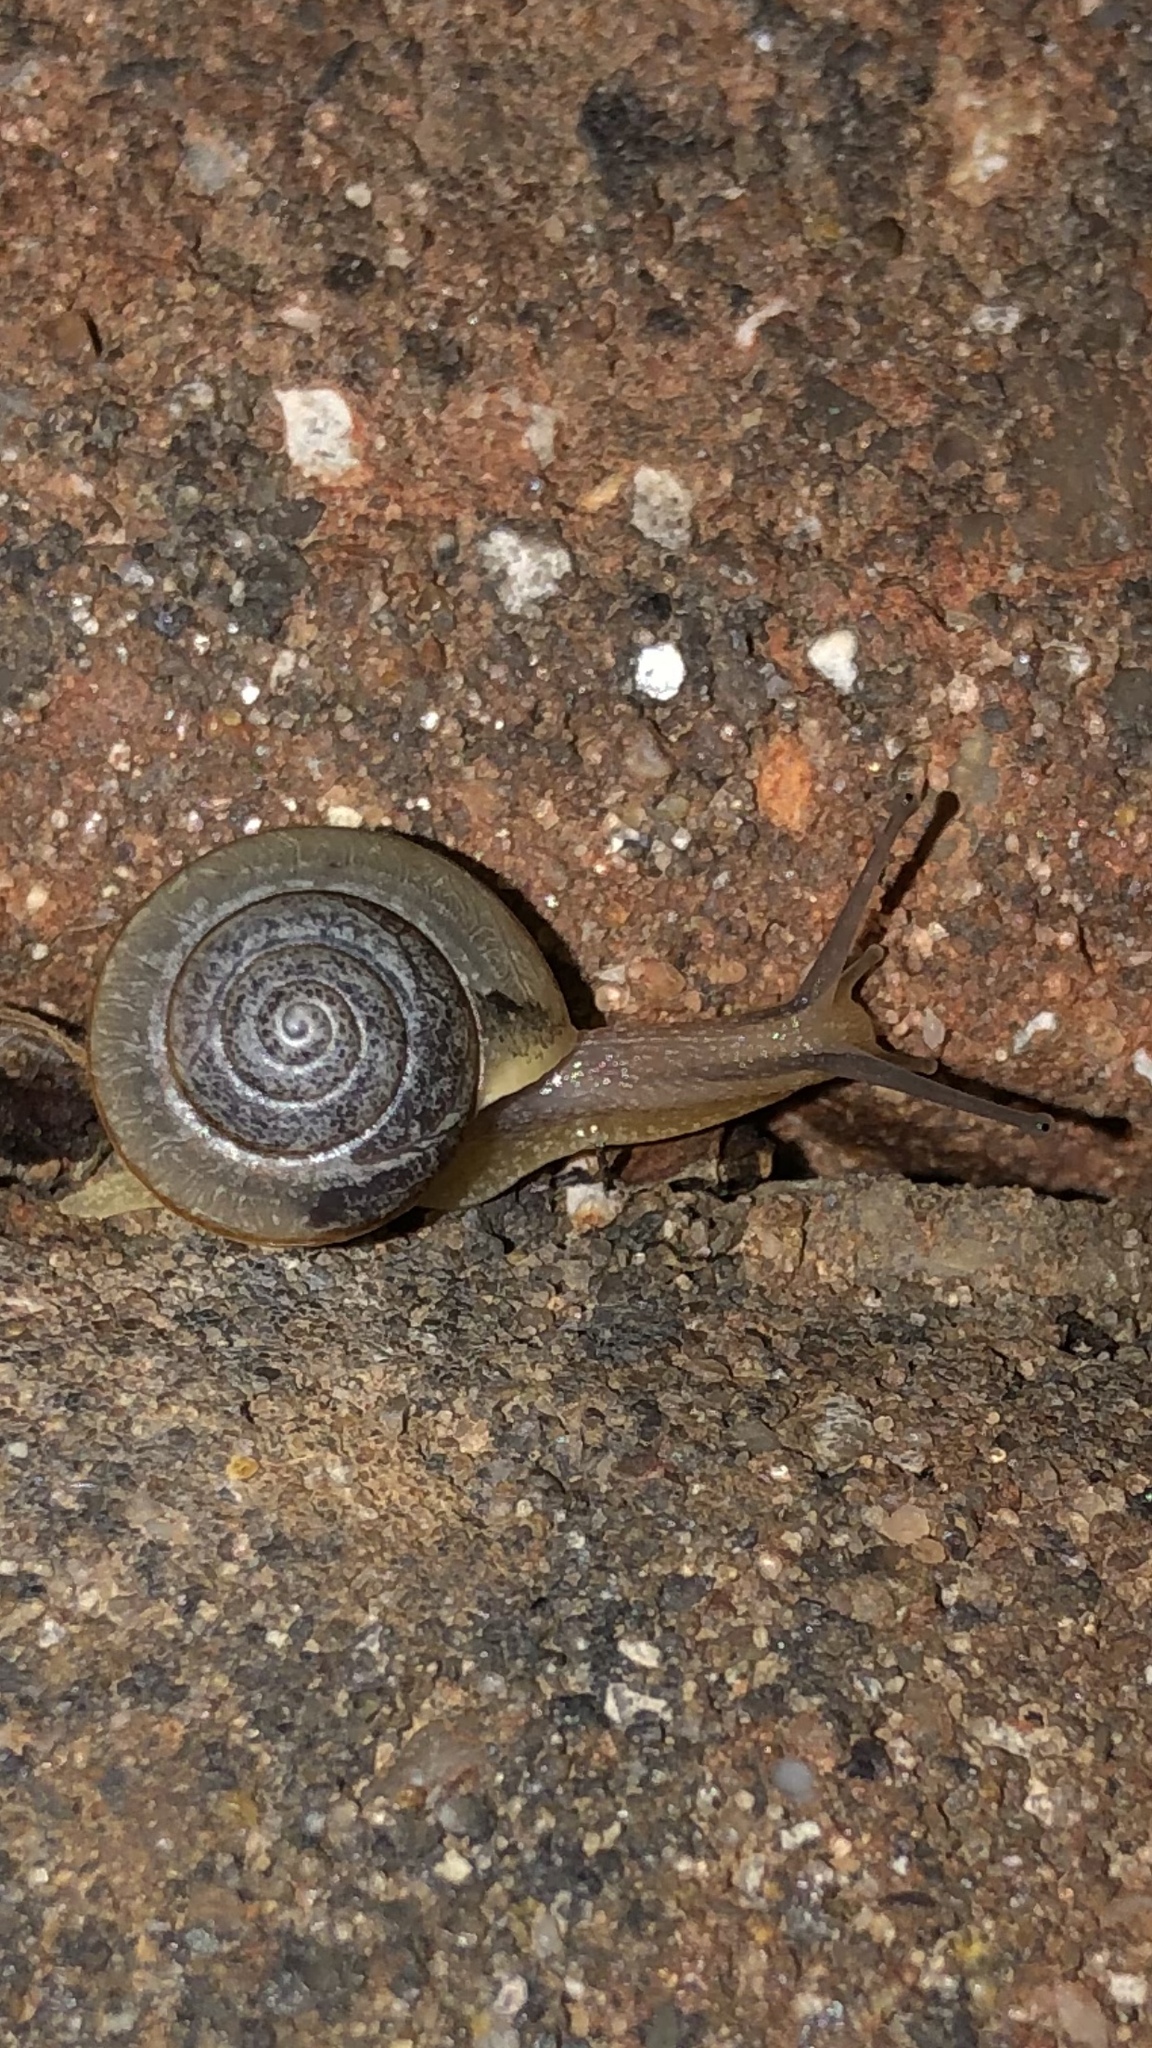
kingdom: Animalia
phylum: Mollusca
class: Gastropoda
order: Stylommatophora
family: Camaenidae
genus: Bradybaena
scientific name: Bradybaena similaris
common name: Asian trampsnail
